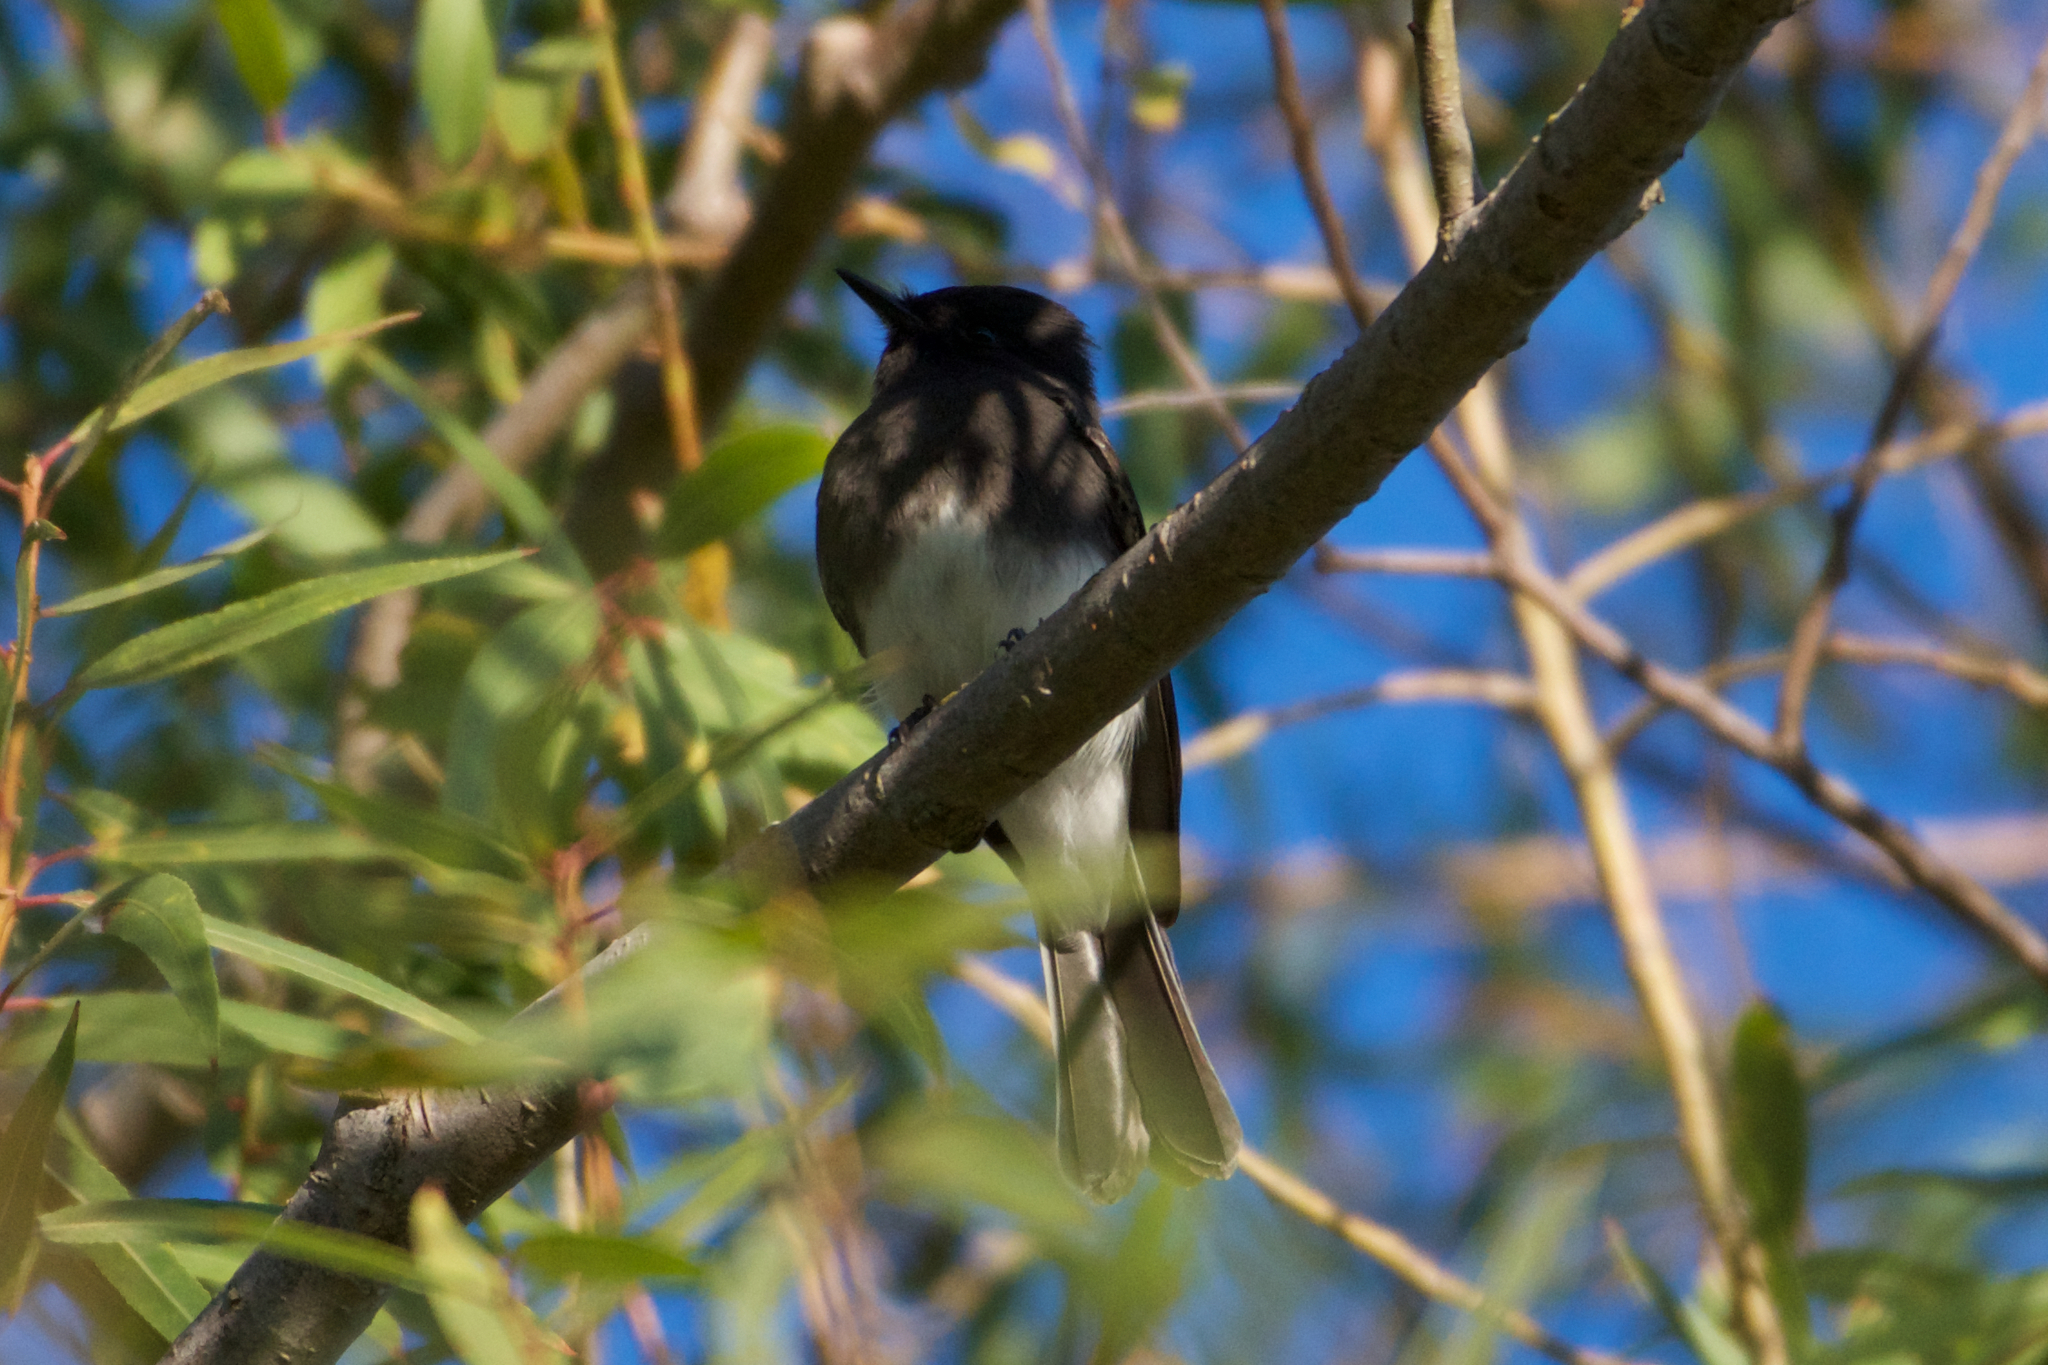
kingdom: Animalia
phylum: Chordata
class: Aves
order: Passeriformes
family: Tyrannidae
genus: Sayornis
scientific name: Sayornis nigricans
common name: Black phoebe
